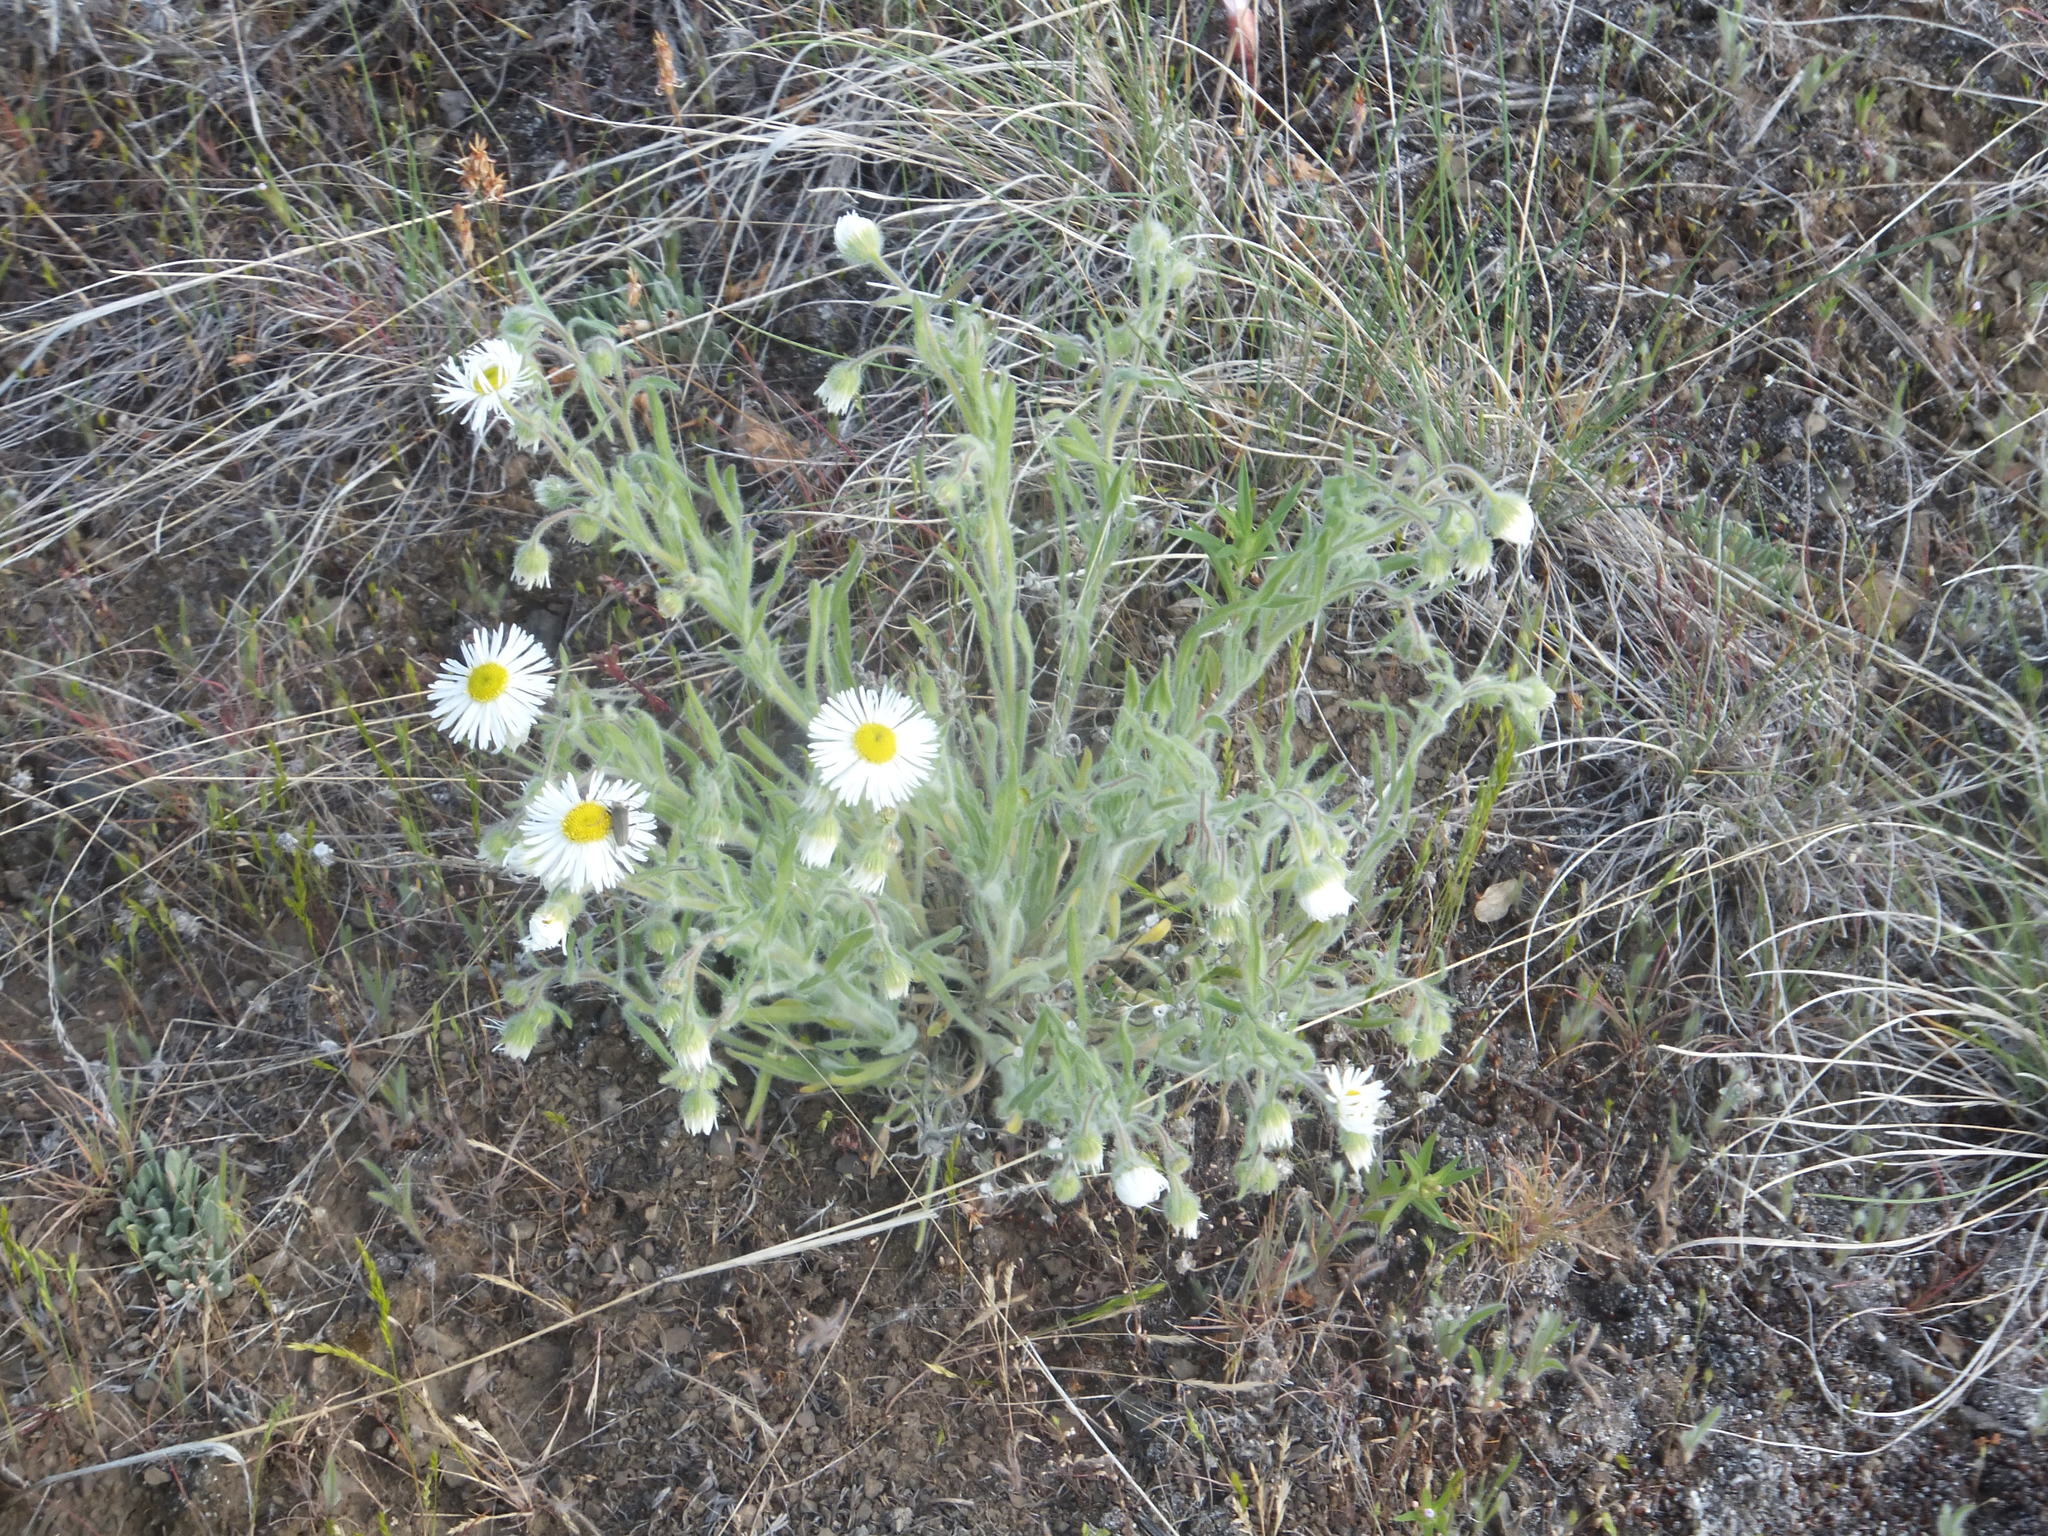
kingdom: Plantae
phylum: Tracheophyta
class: Magnoliopsida
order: Asterales
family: Asteraceae
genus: Erigeron
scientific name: Erigeron pumilus
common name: Shaggy fleabane
